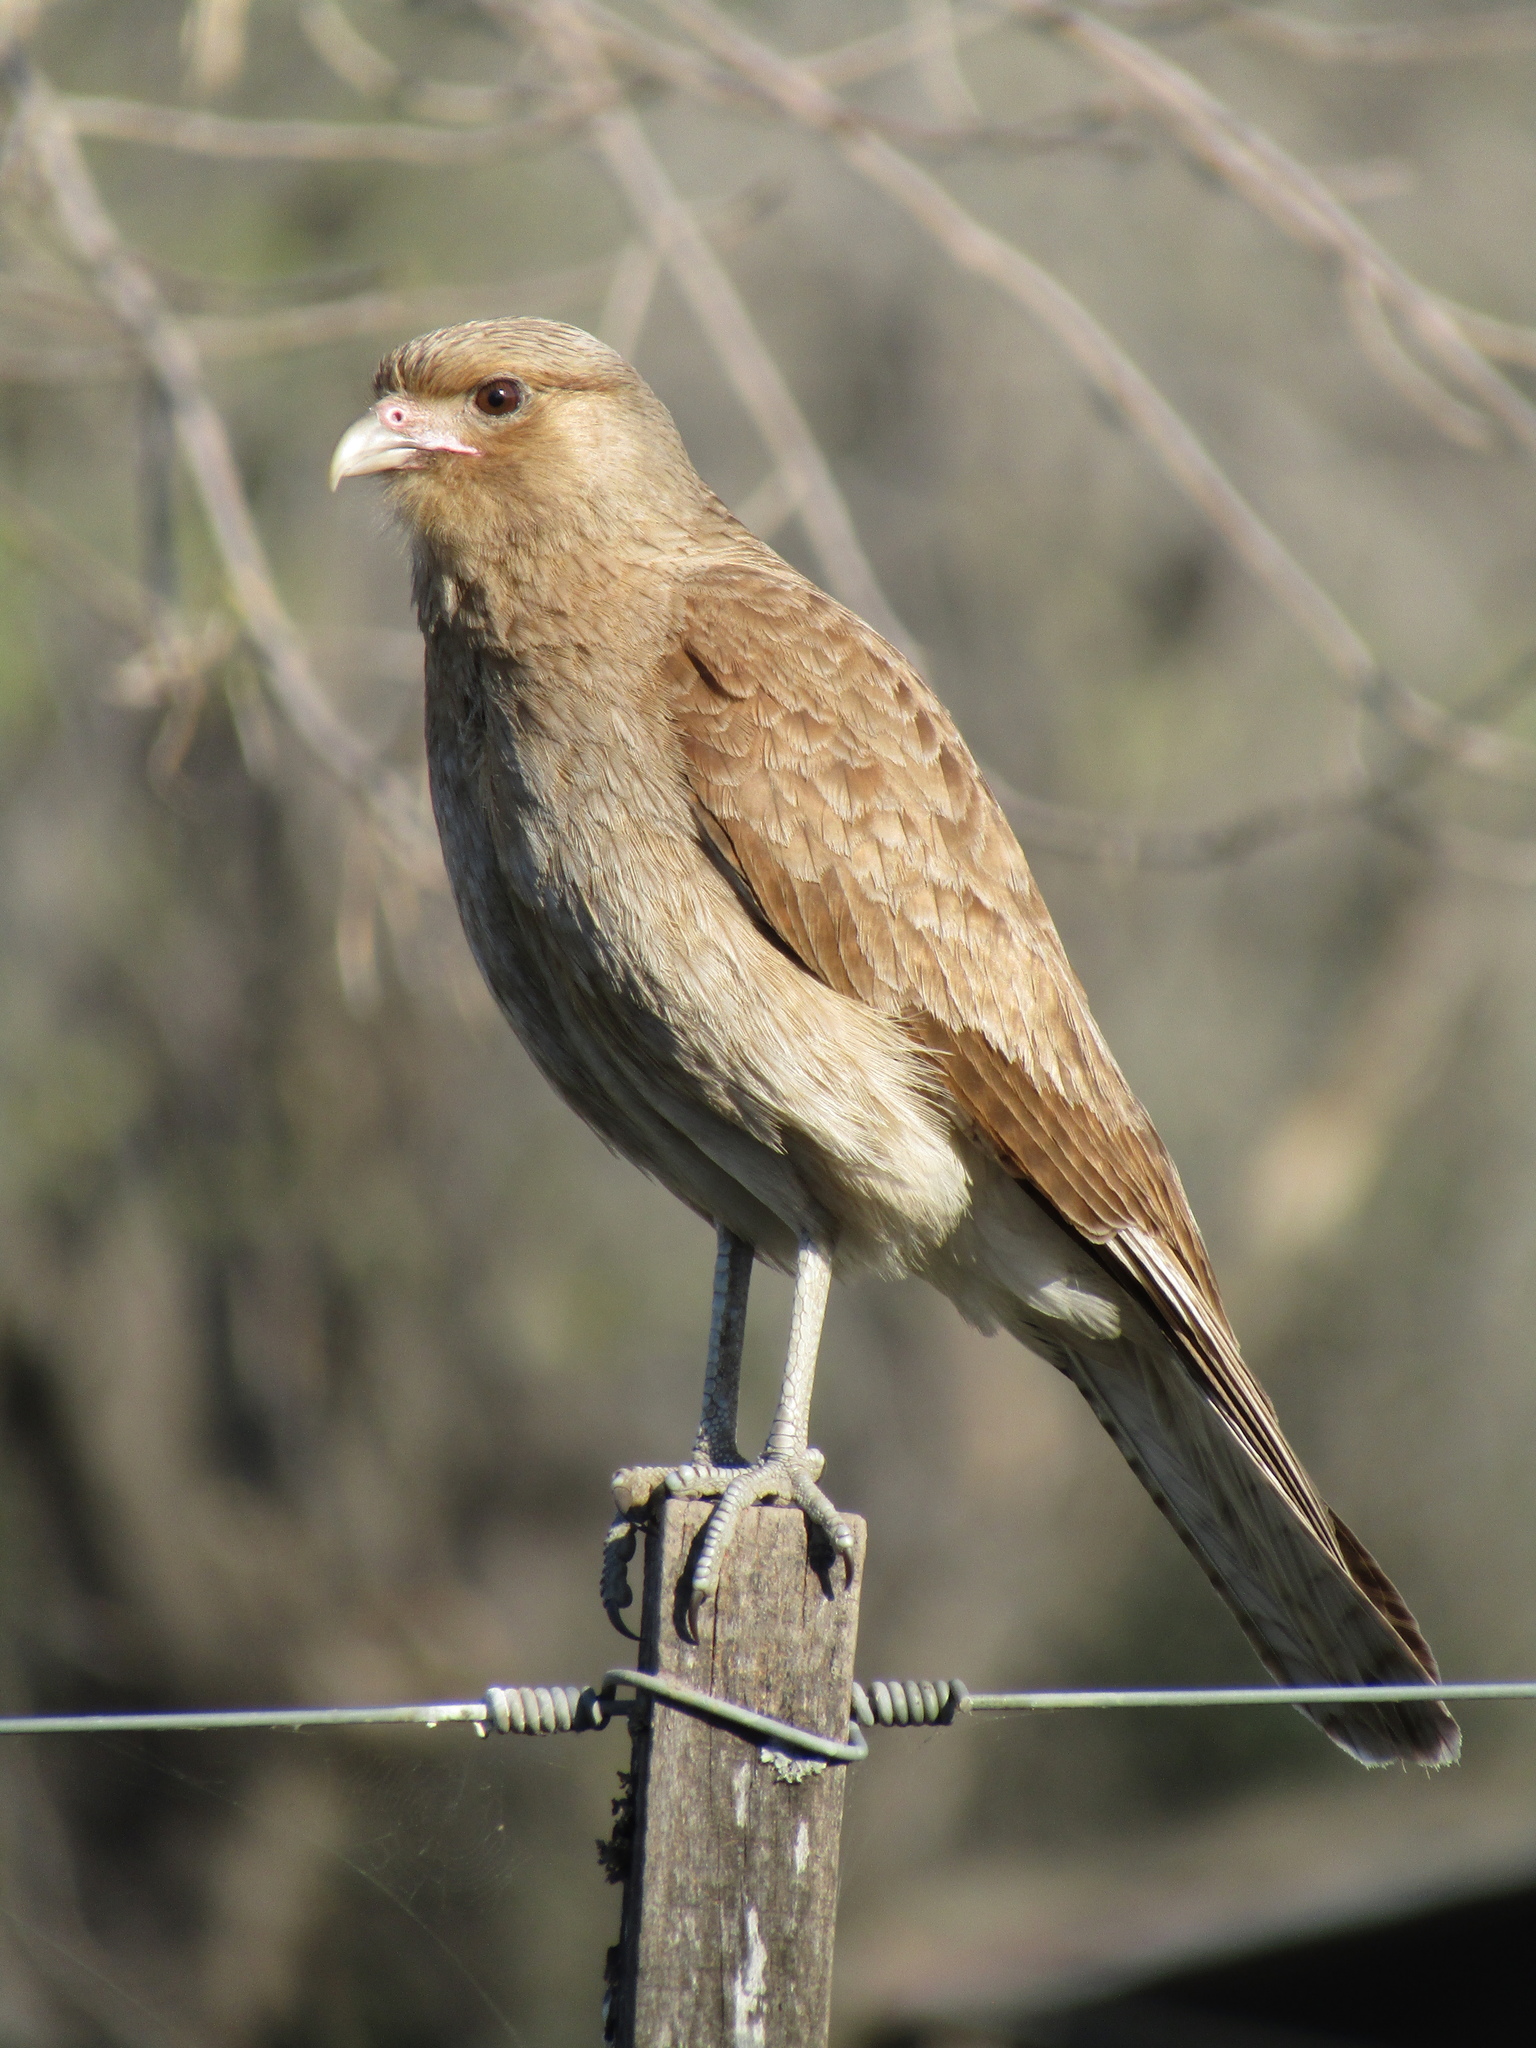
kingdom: Animalia
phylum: Chordata
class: Aves
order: Falconiformes
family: Falconidae
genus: Daptrius
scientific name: Daptrius
